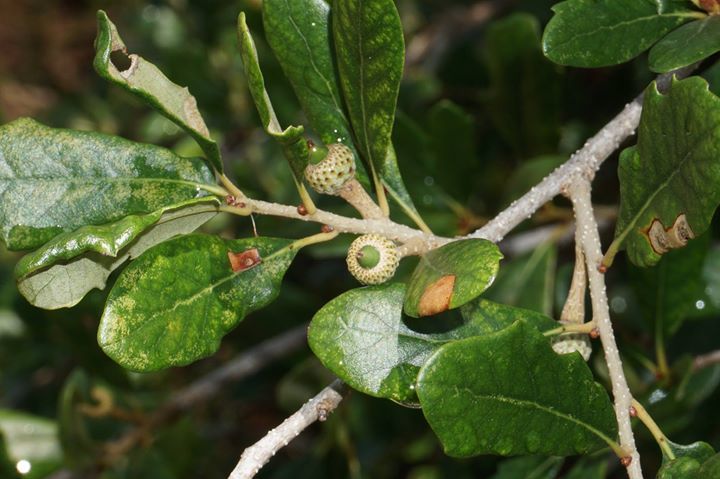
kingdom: Plantae
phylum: Tracheophyta
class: Magnoliopsida
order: Fagales
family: Fagaceae
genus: Quercus
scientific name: Quercus virginiana
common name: Southern live oak
